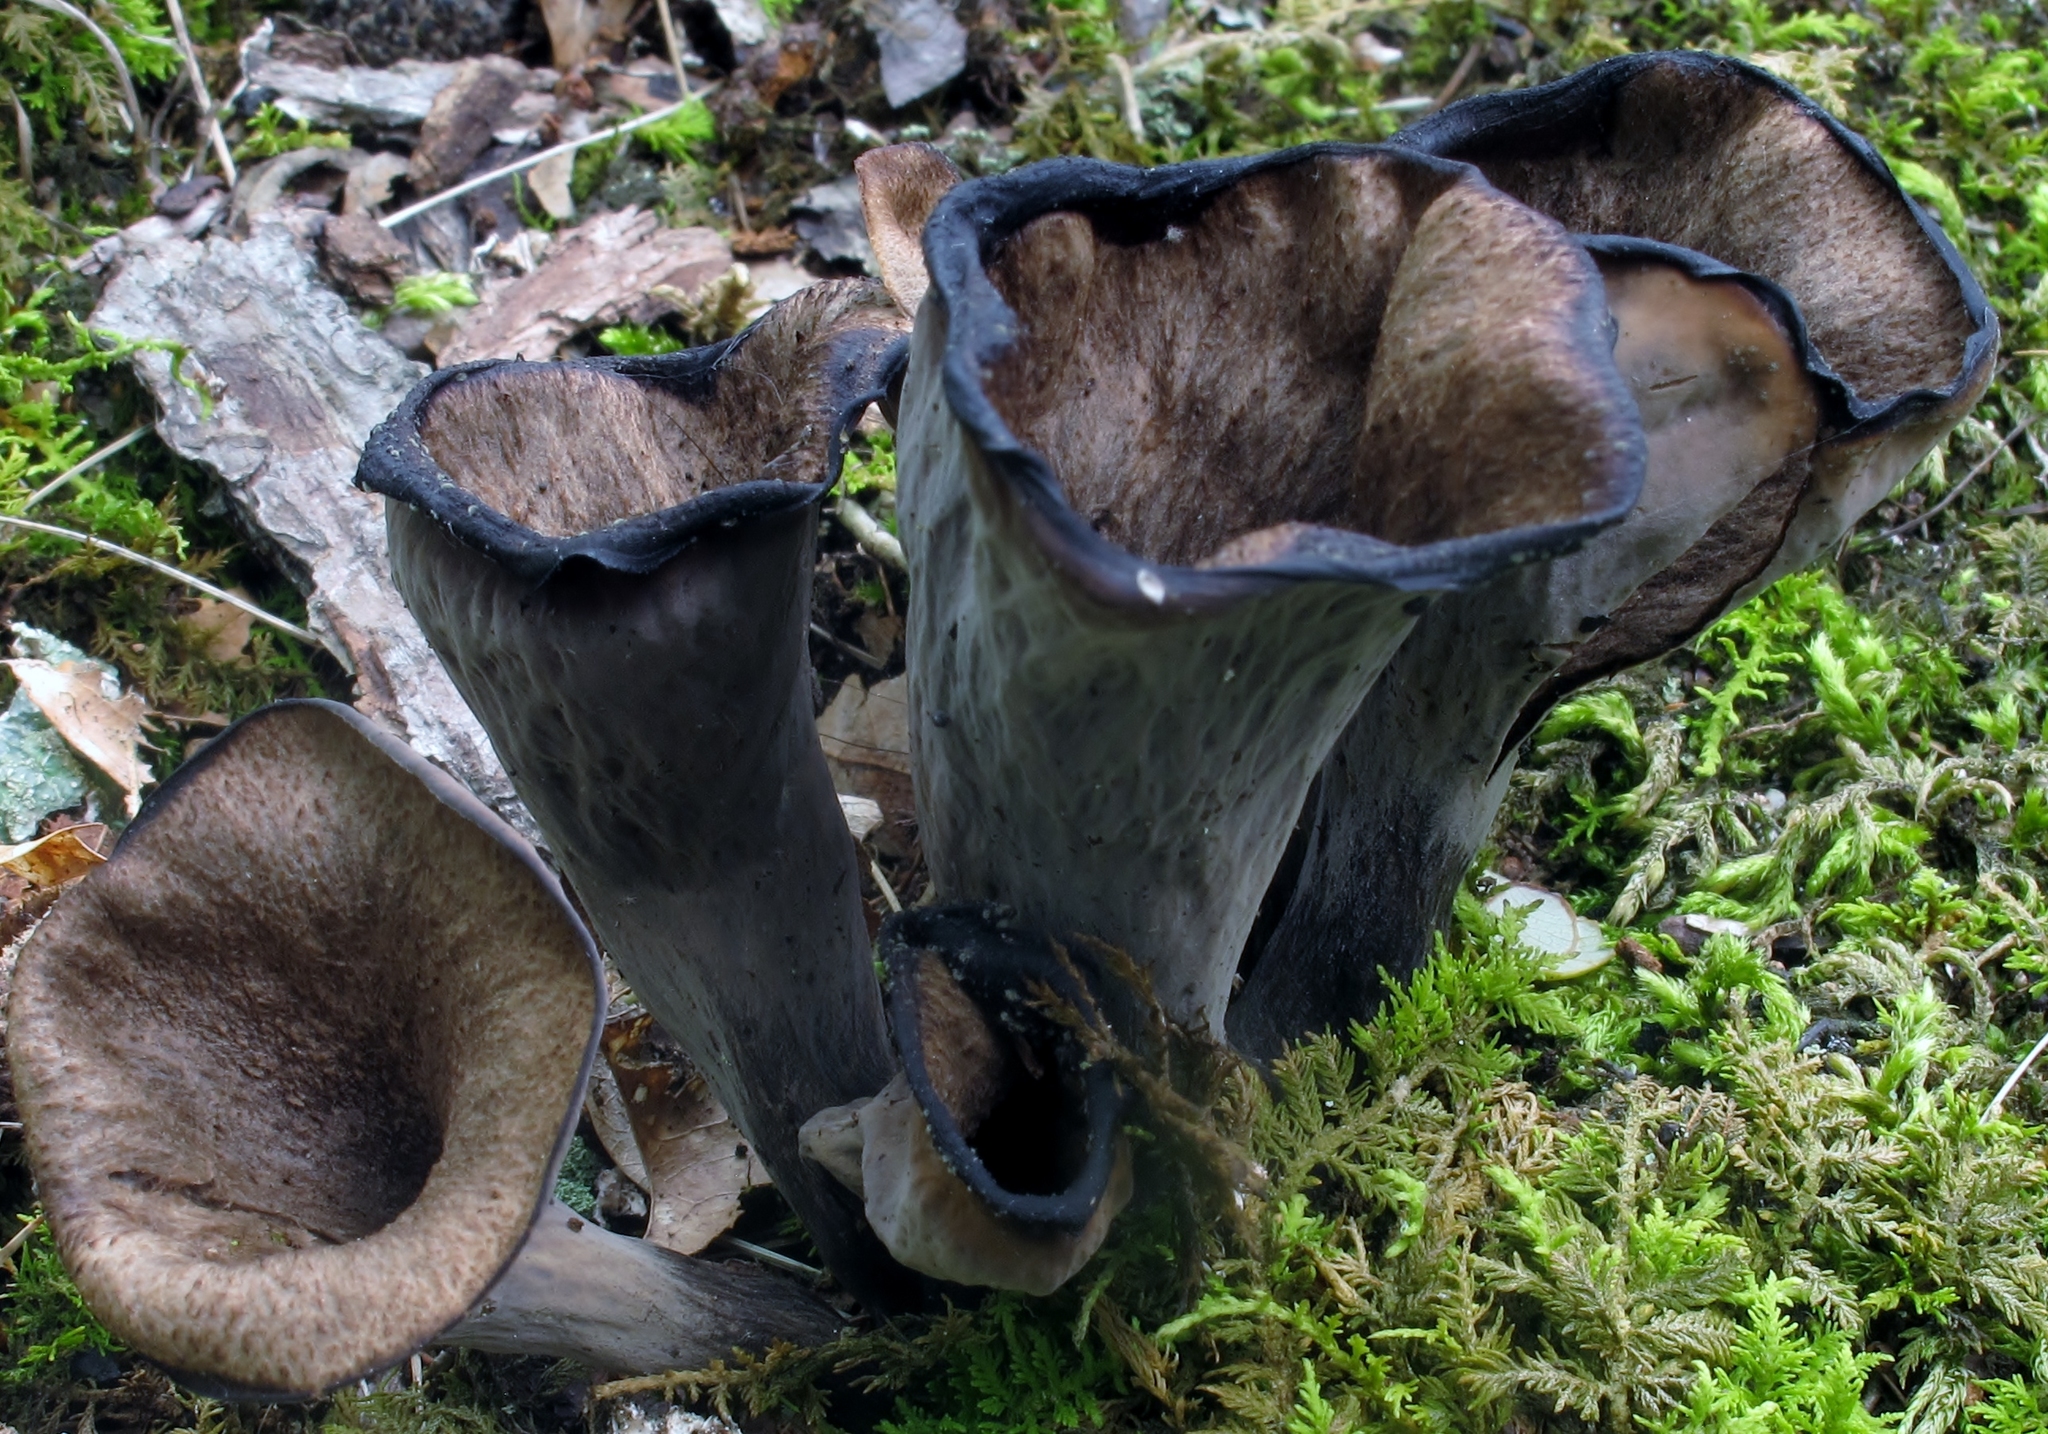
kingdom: Fungi
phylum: Basidiomycota
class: Agaricomycetes
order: Cantharellales
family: Hydnaceae
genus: Craterellus
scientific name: Craterellus cornucopioides
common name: Horn of plenty
